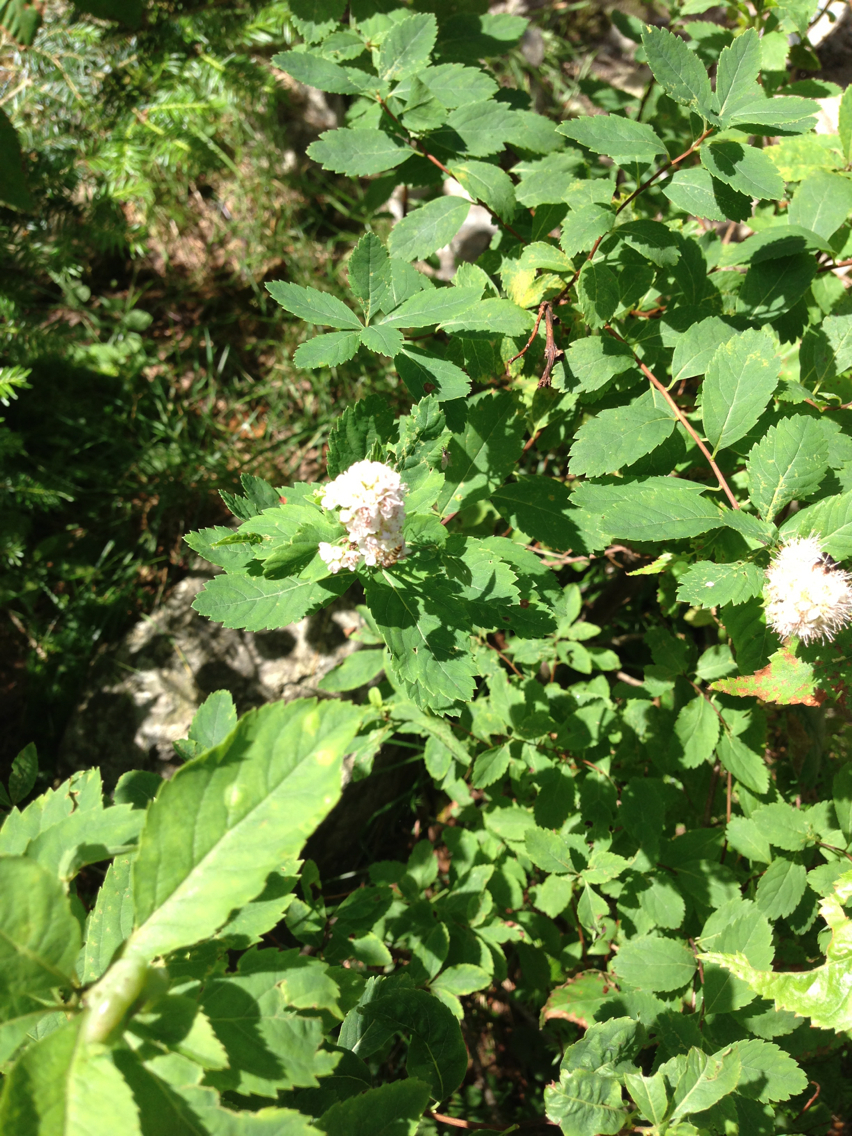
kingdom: Plantae
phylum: Tracheophyta
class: Magnoliopsida
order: Rosales
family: Rosaceae
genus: Spiraea
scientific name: Spiraea alba
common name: Pale bridewort
